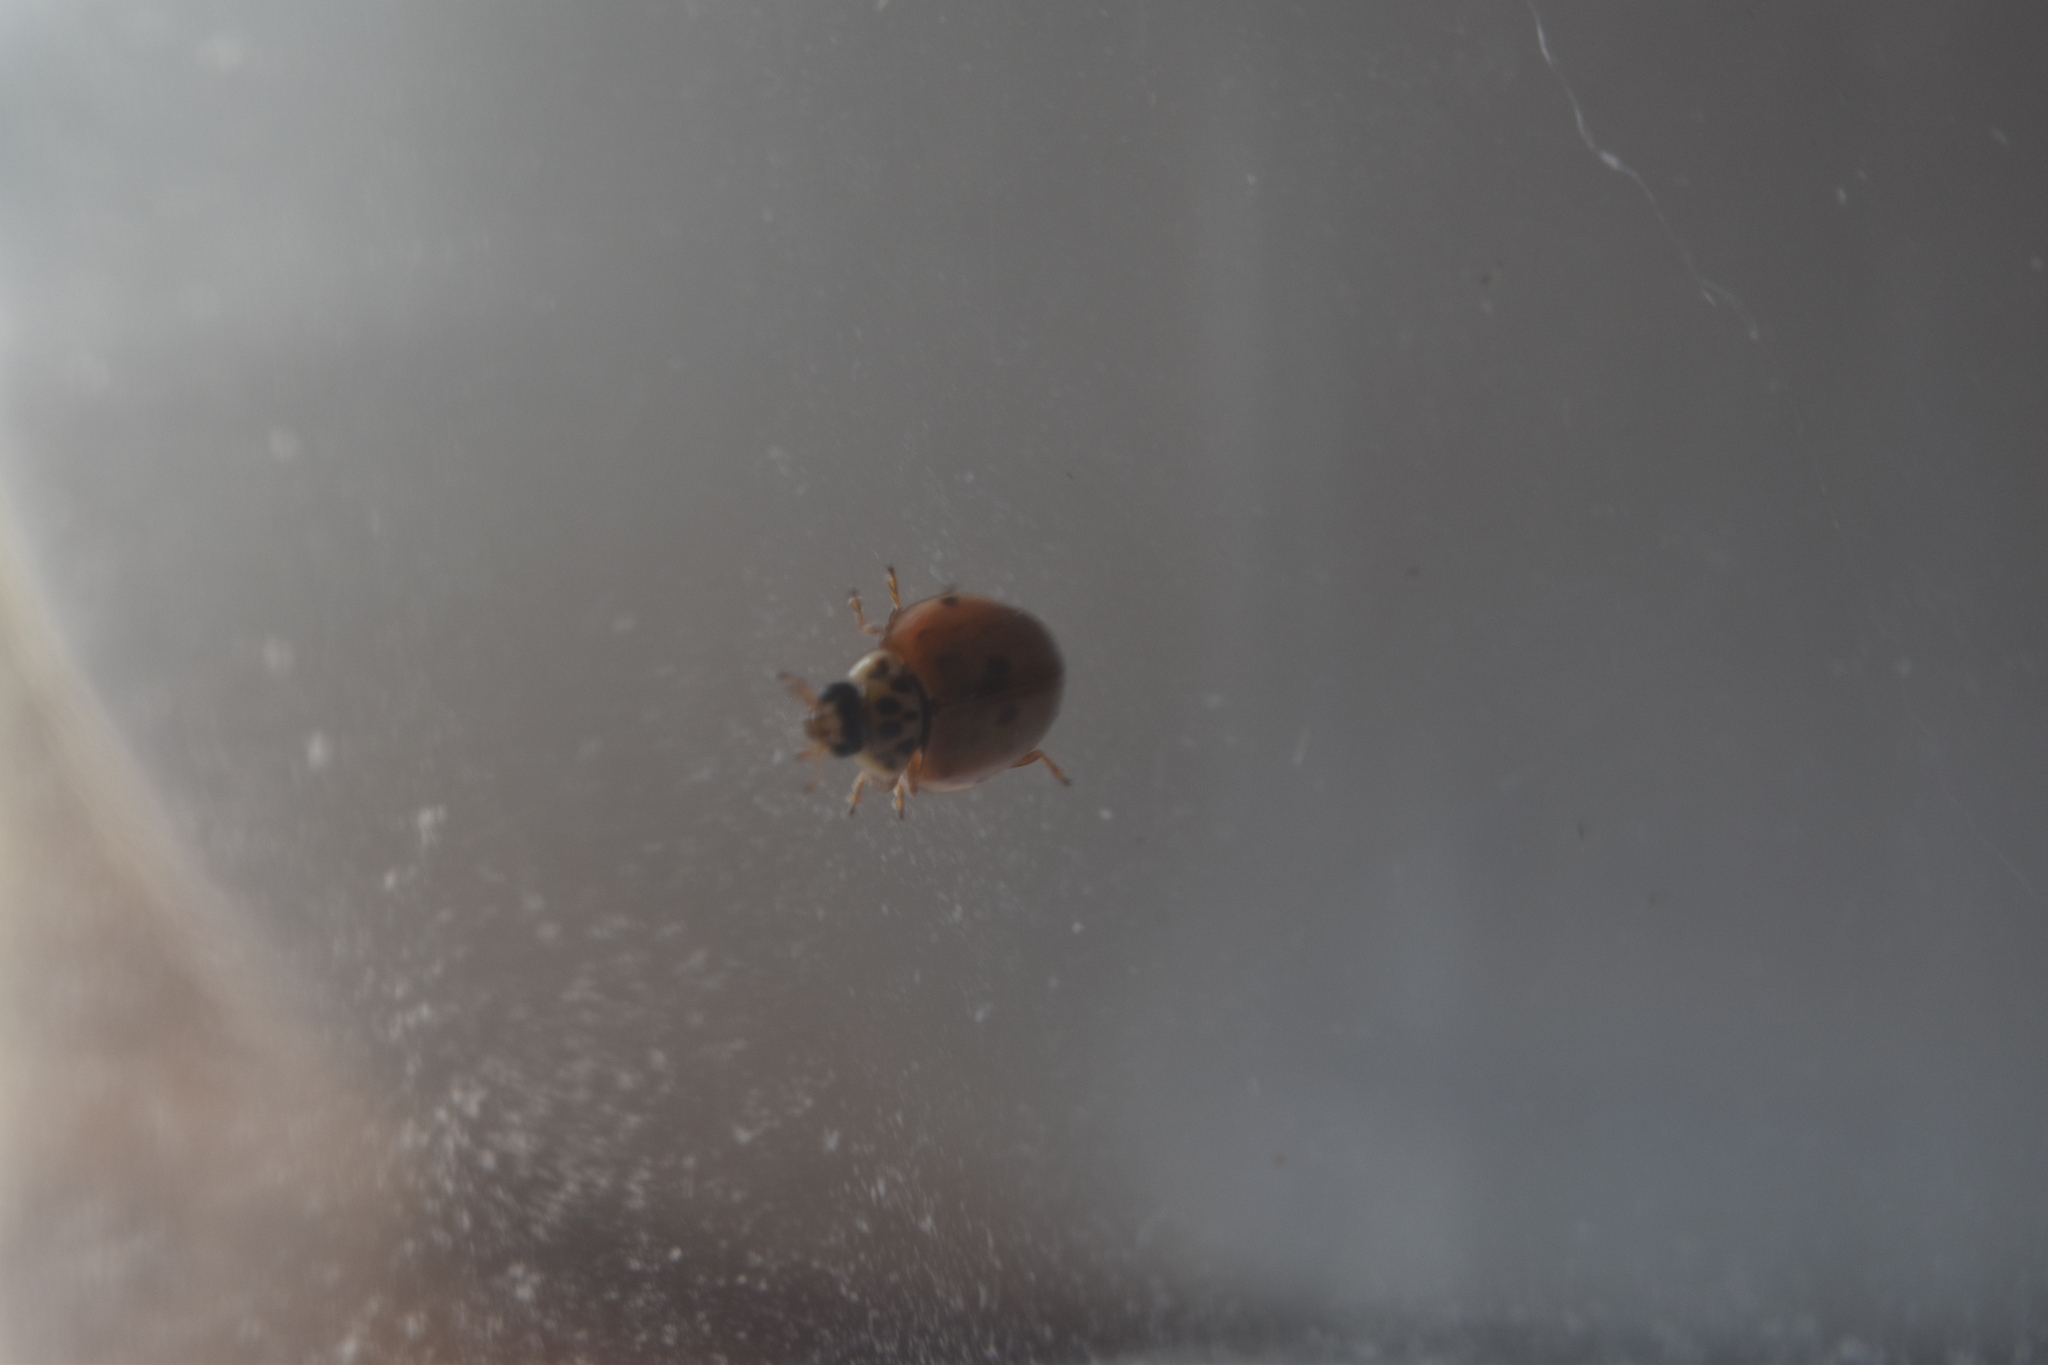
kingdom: Animalia
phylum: Arthropoda
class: Insecta
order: Coleoptera
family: Coccinellidae
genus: Adalia
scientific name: Adalia decempunctata
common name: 10-spot ladybird
